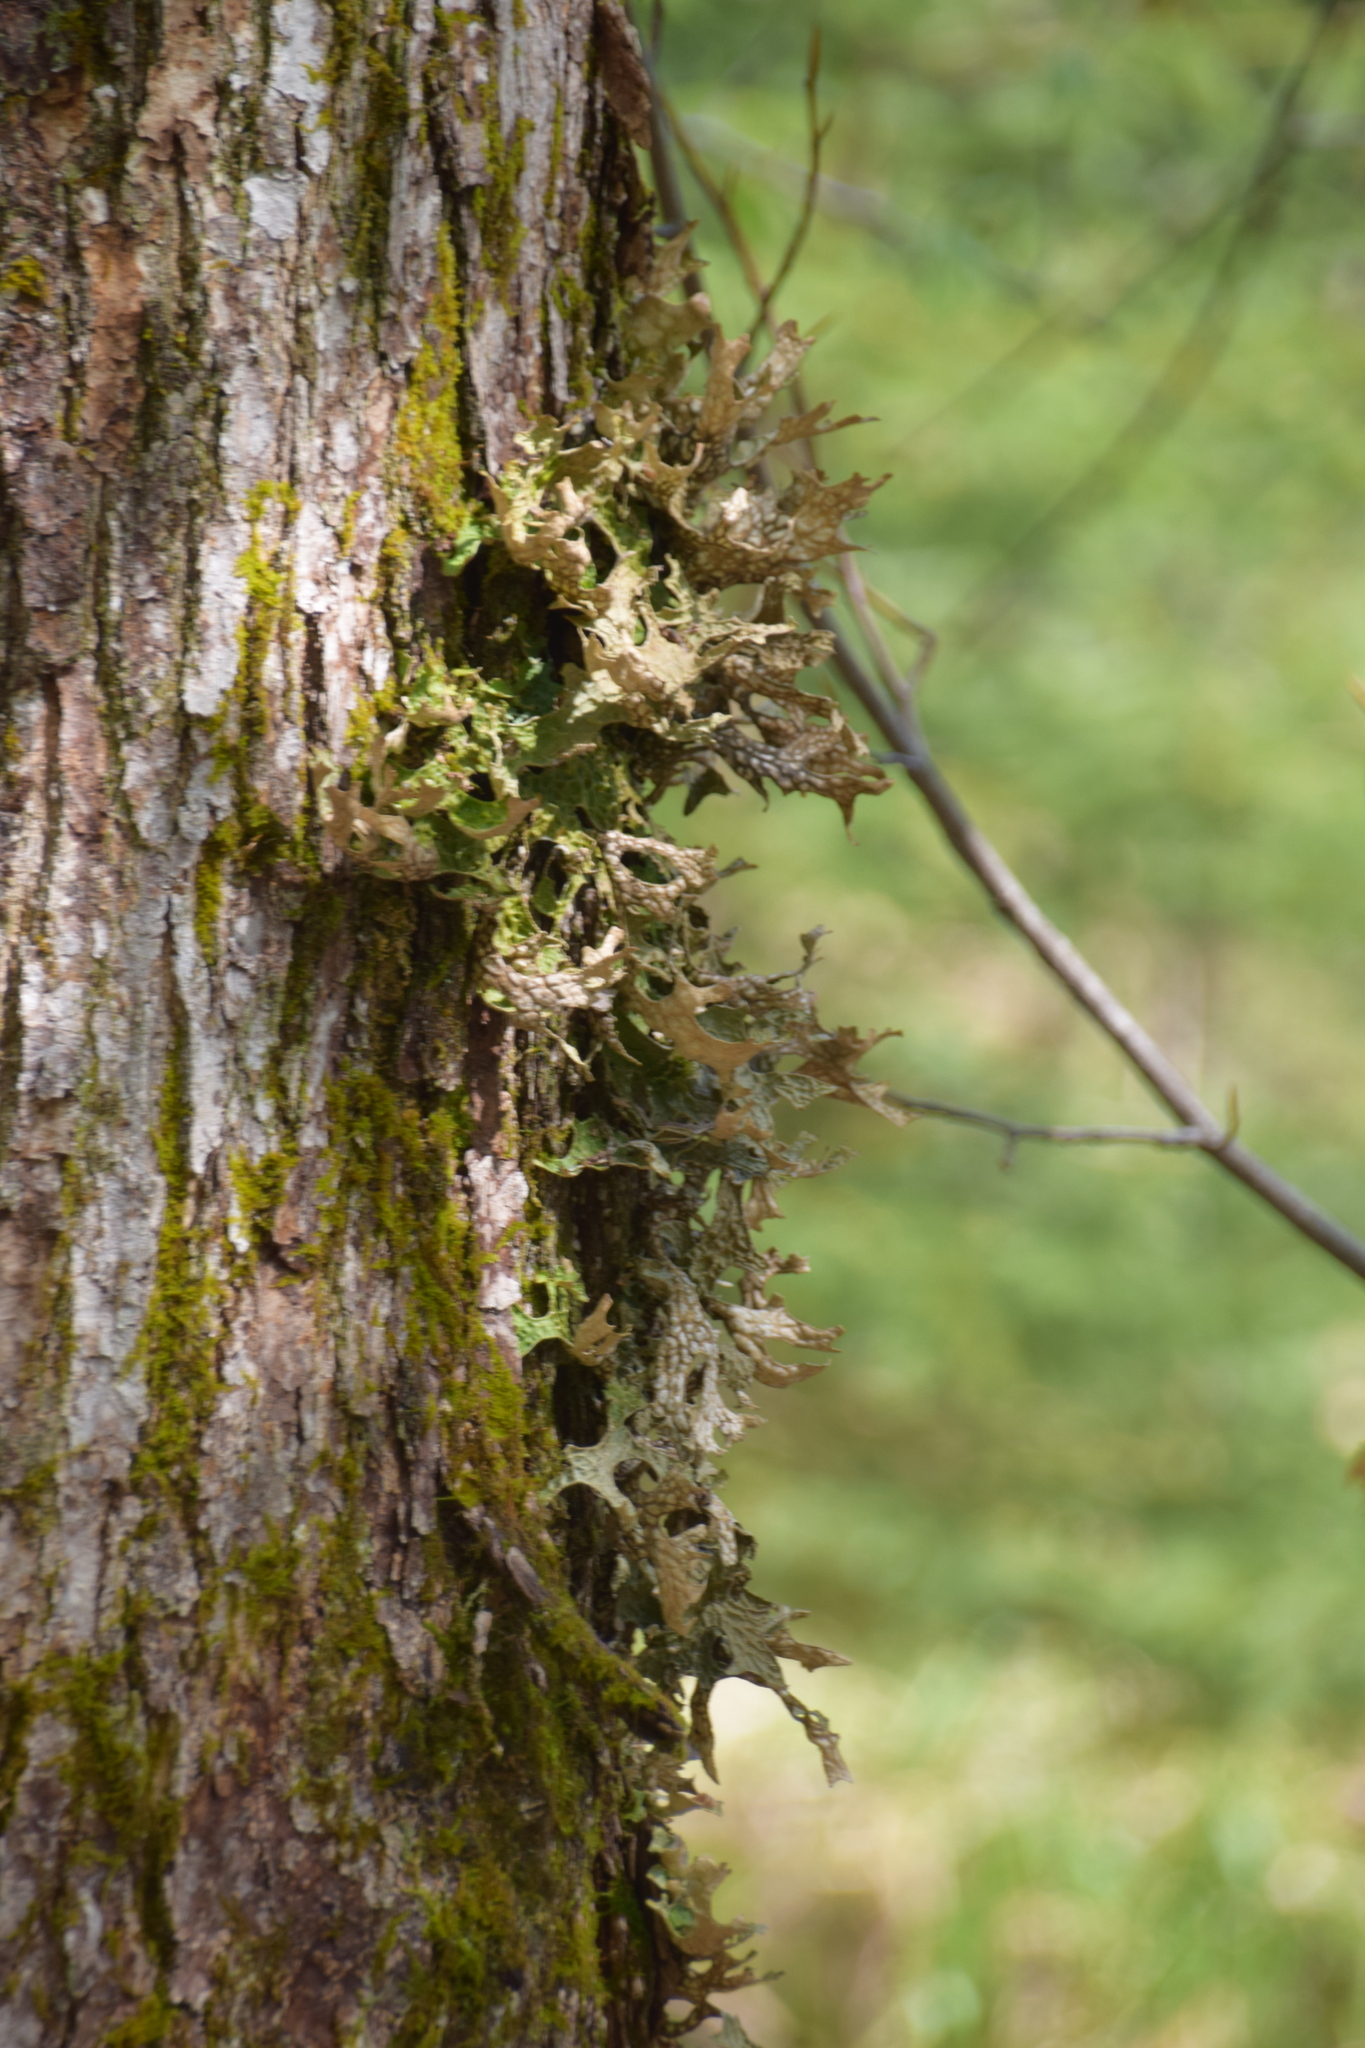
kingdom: Fungi
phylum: Ascomycota
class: Lecanoromycetes
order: Peltigerales
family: Lobariaceae
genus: Lobaria
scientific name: Lobaria pulmonaria
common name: Lungwort
